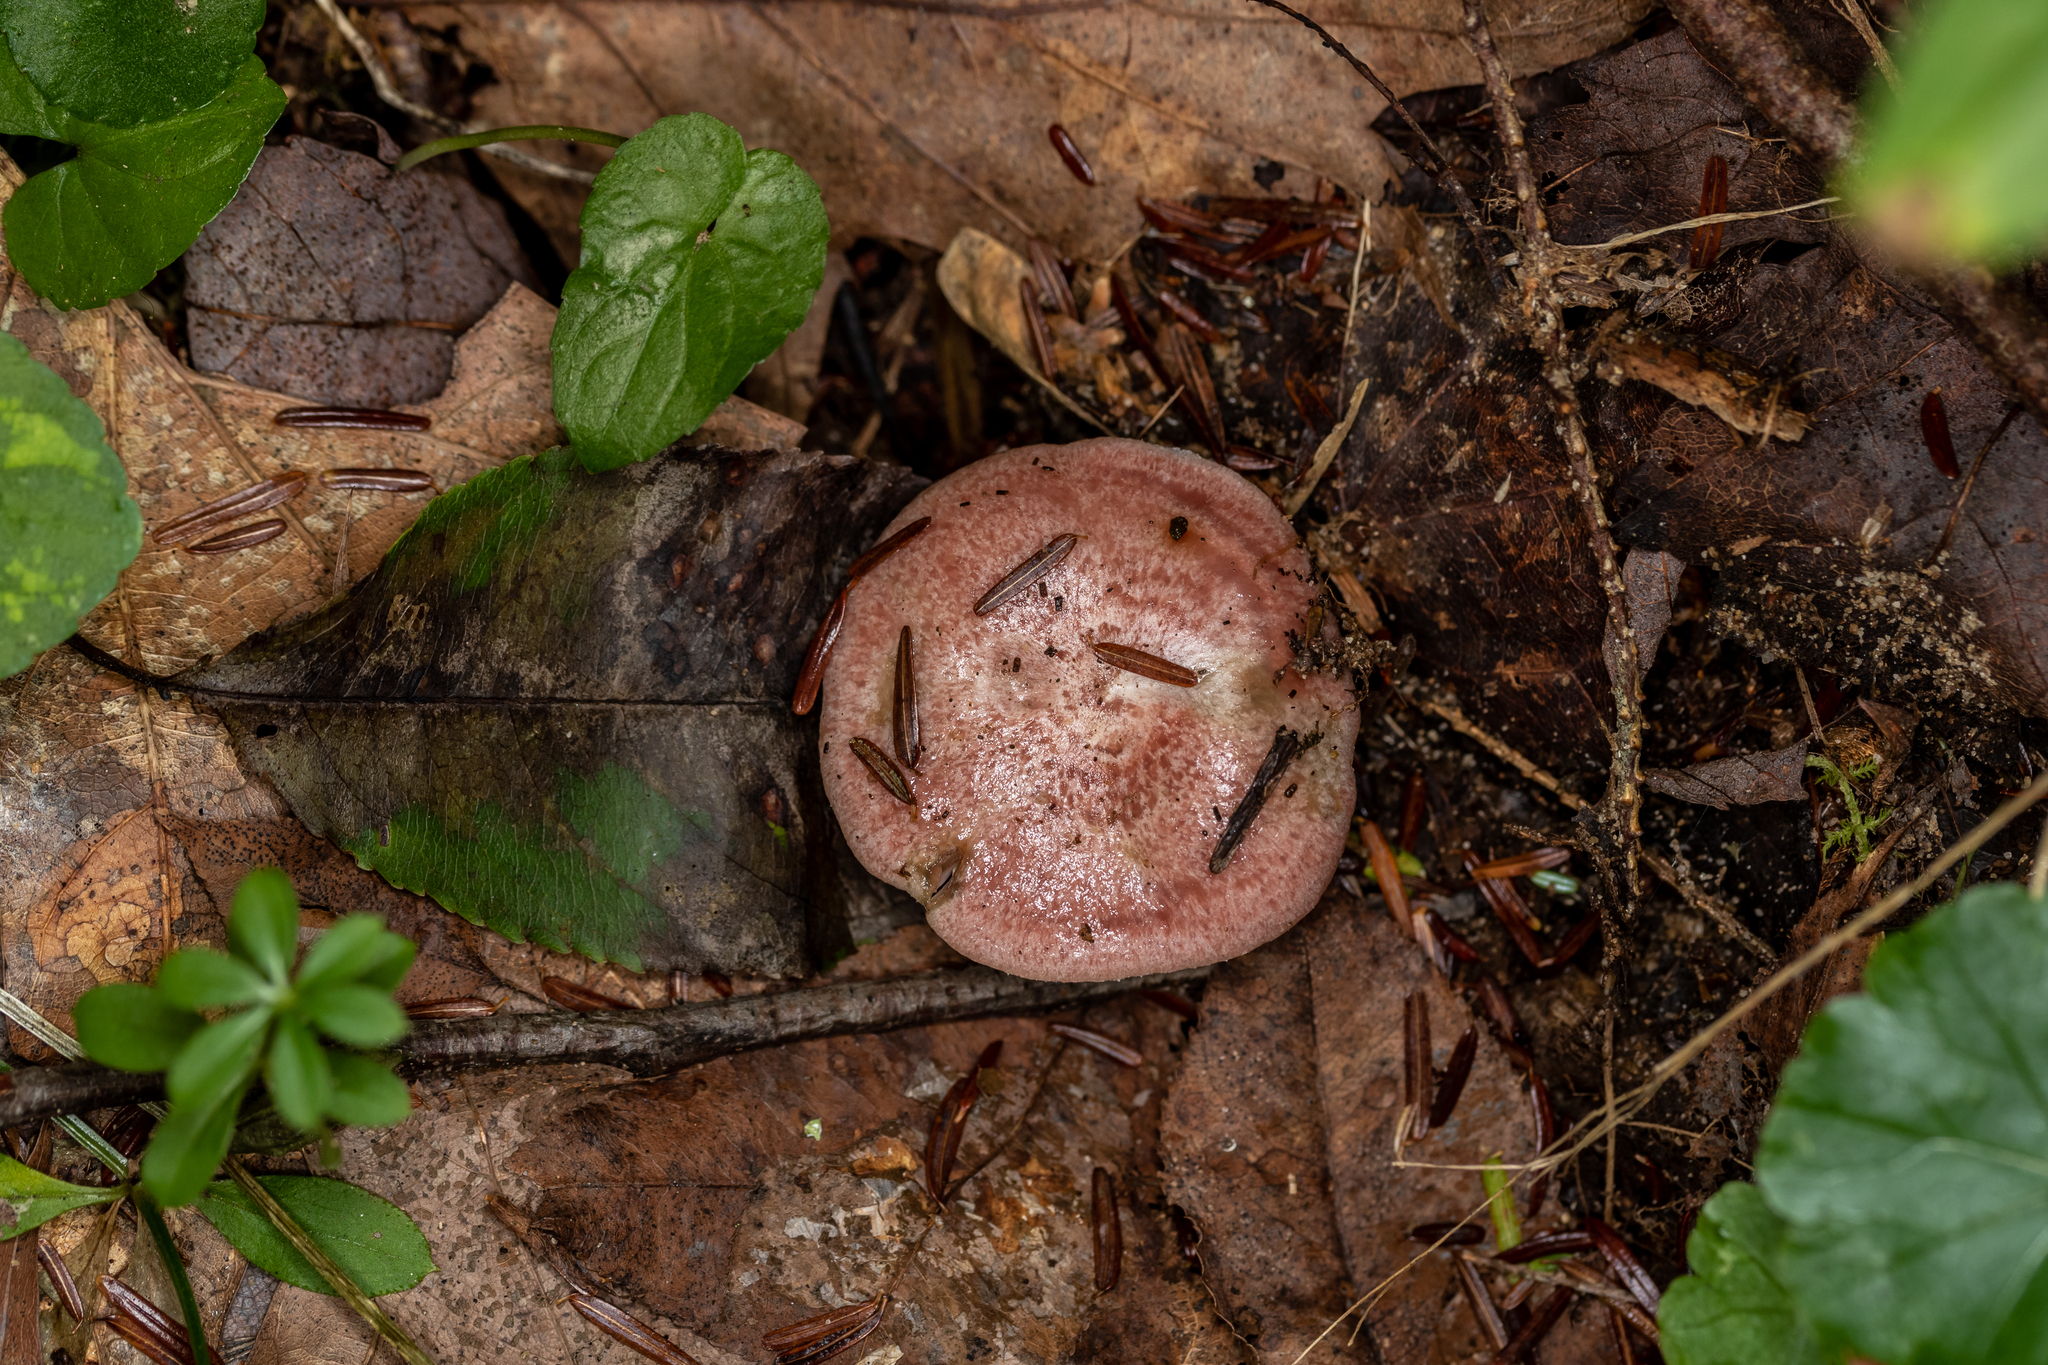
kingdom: Fungi
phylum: Basidiomycota
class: Agaricomycetes
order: Russulales
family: Russulaceae
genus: Lactarius
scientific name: Lactarius subpurpureus
